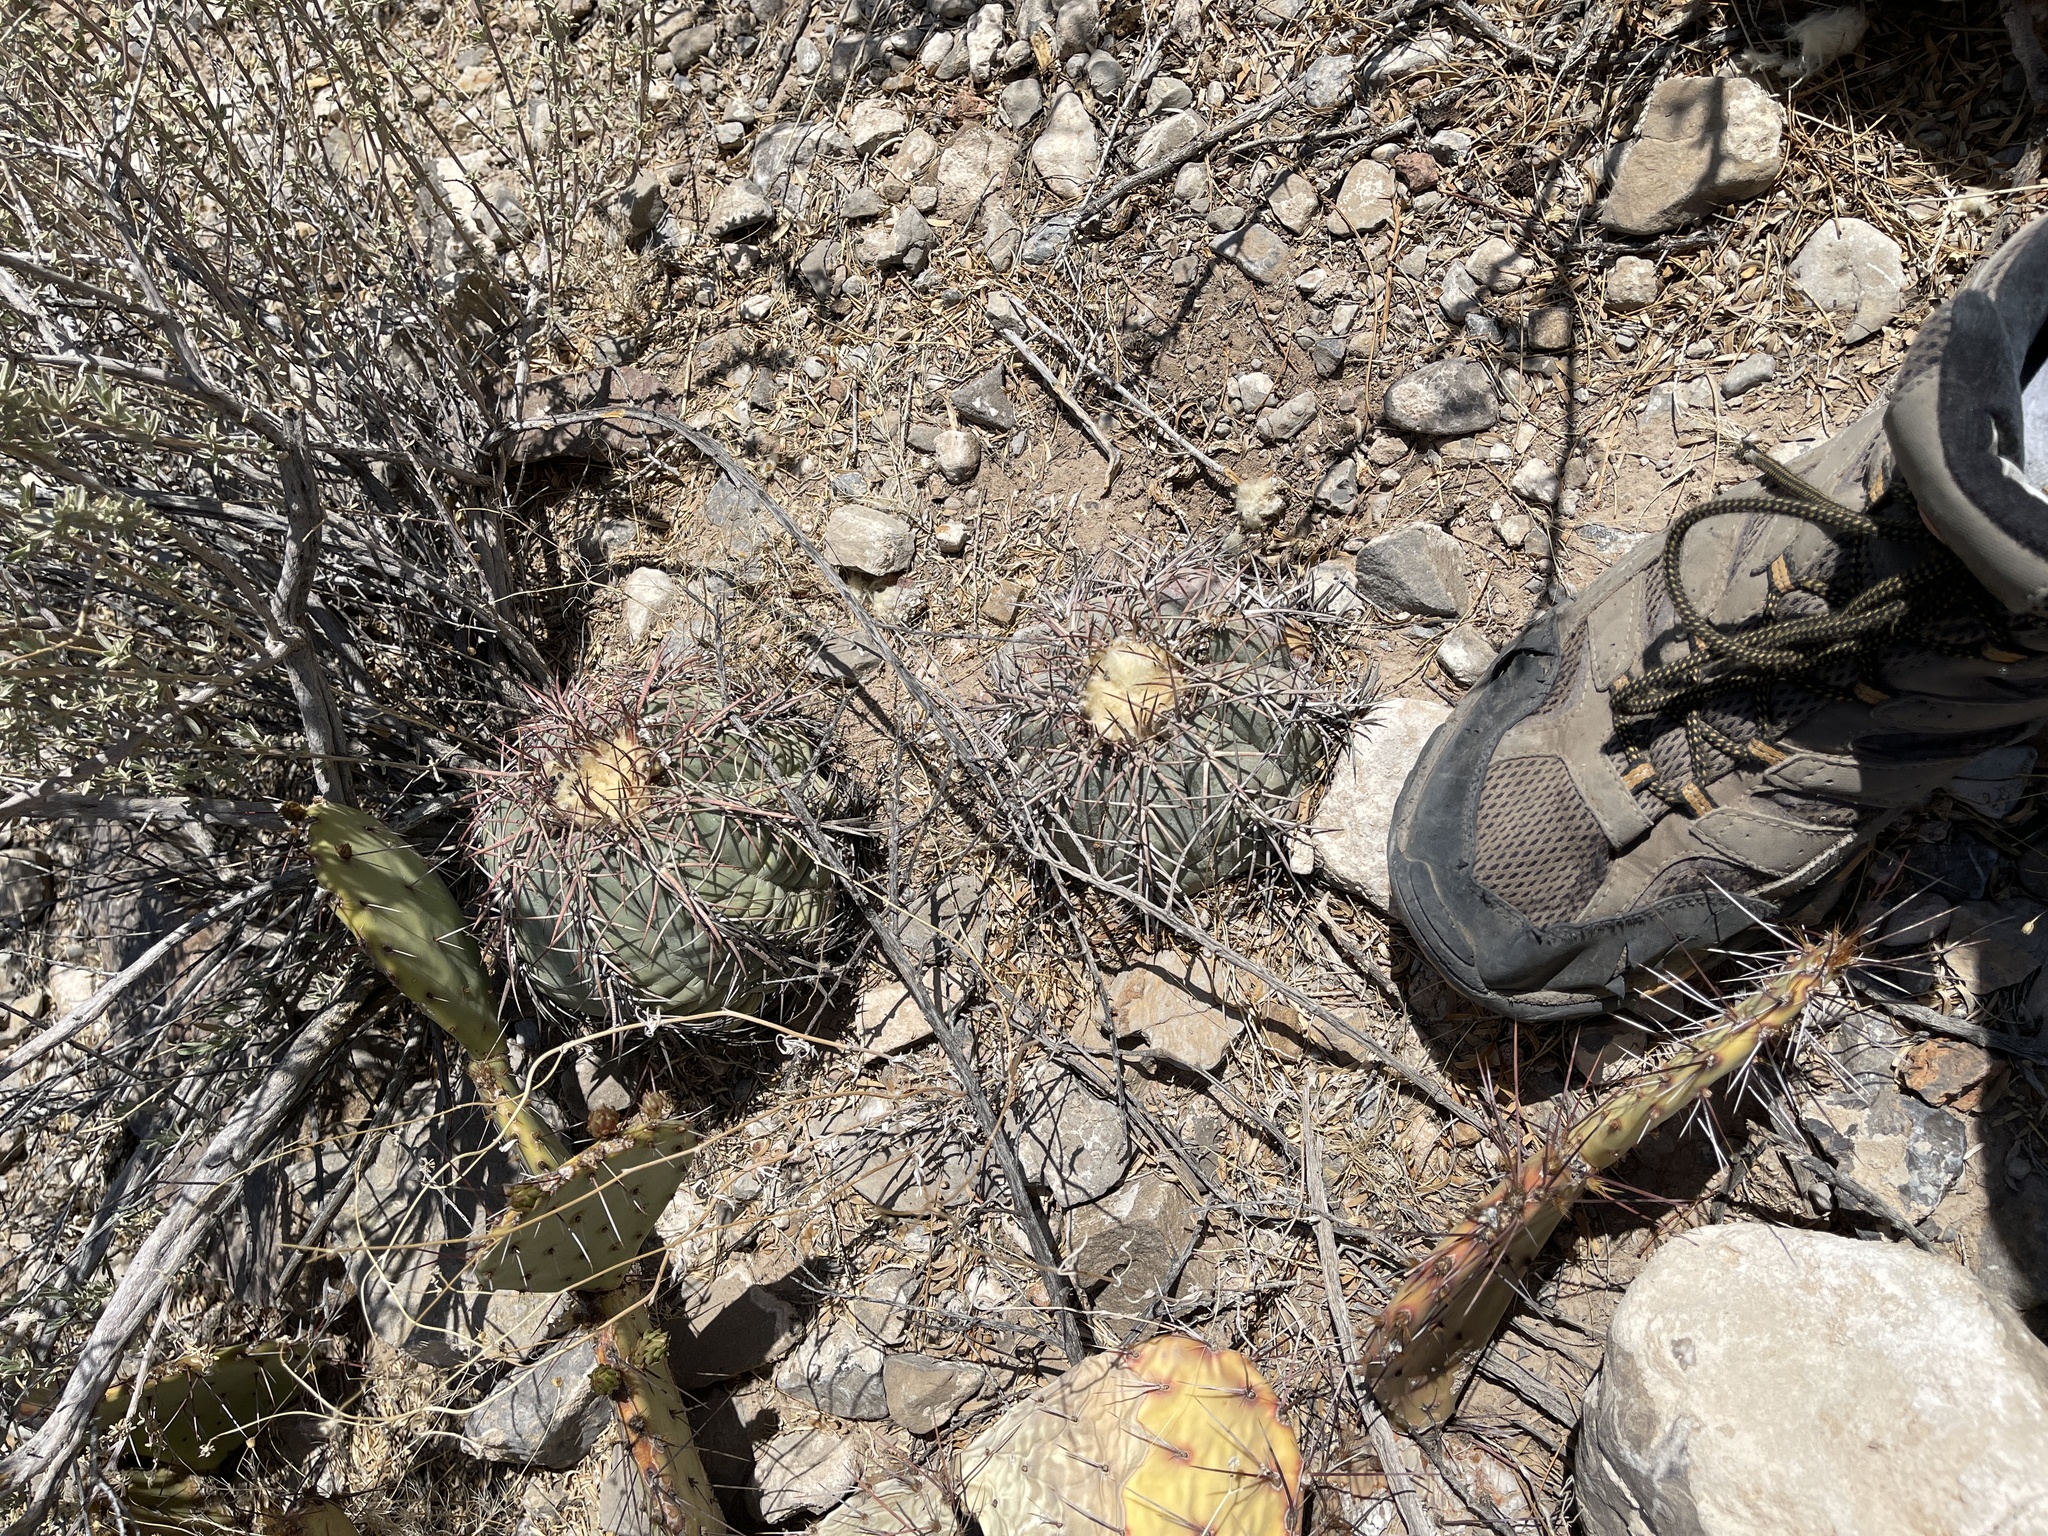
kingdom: Plantae
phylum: Tracheophyta
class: Magnoliopsida
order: Caryophyllales
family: Cactaceae
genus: Echinocactus
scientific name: Echinocactus horizonthalonius
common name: Devilshead
